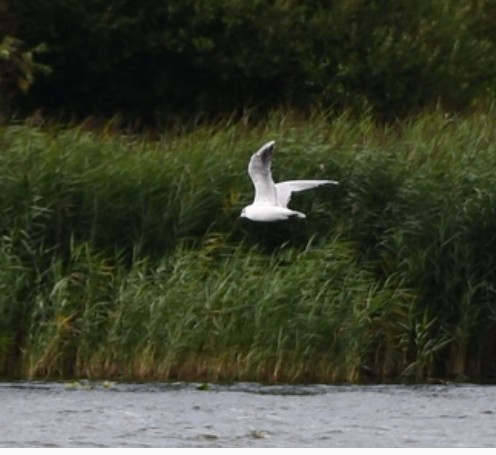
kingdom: Animalia
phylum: Chordata
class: Aves
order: Charadriiformes
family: Laridae
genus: Chroicocephalus
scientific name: Chroicocephalus ridibundus
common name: Black-headed gull
